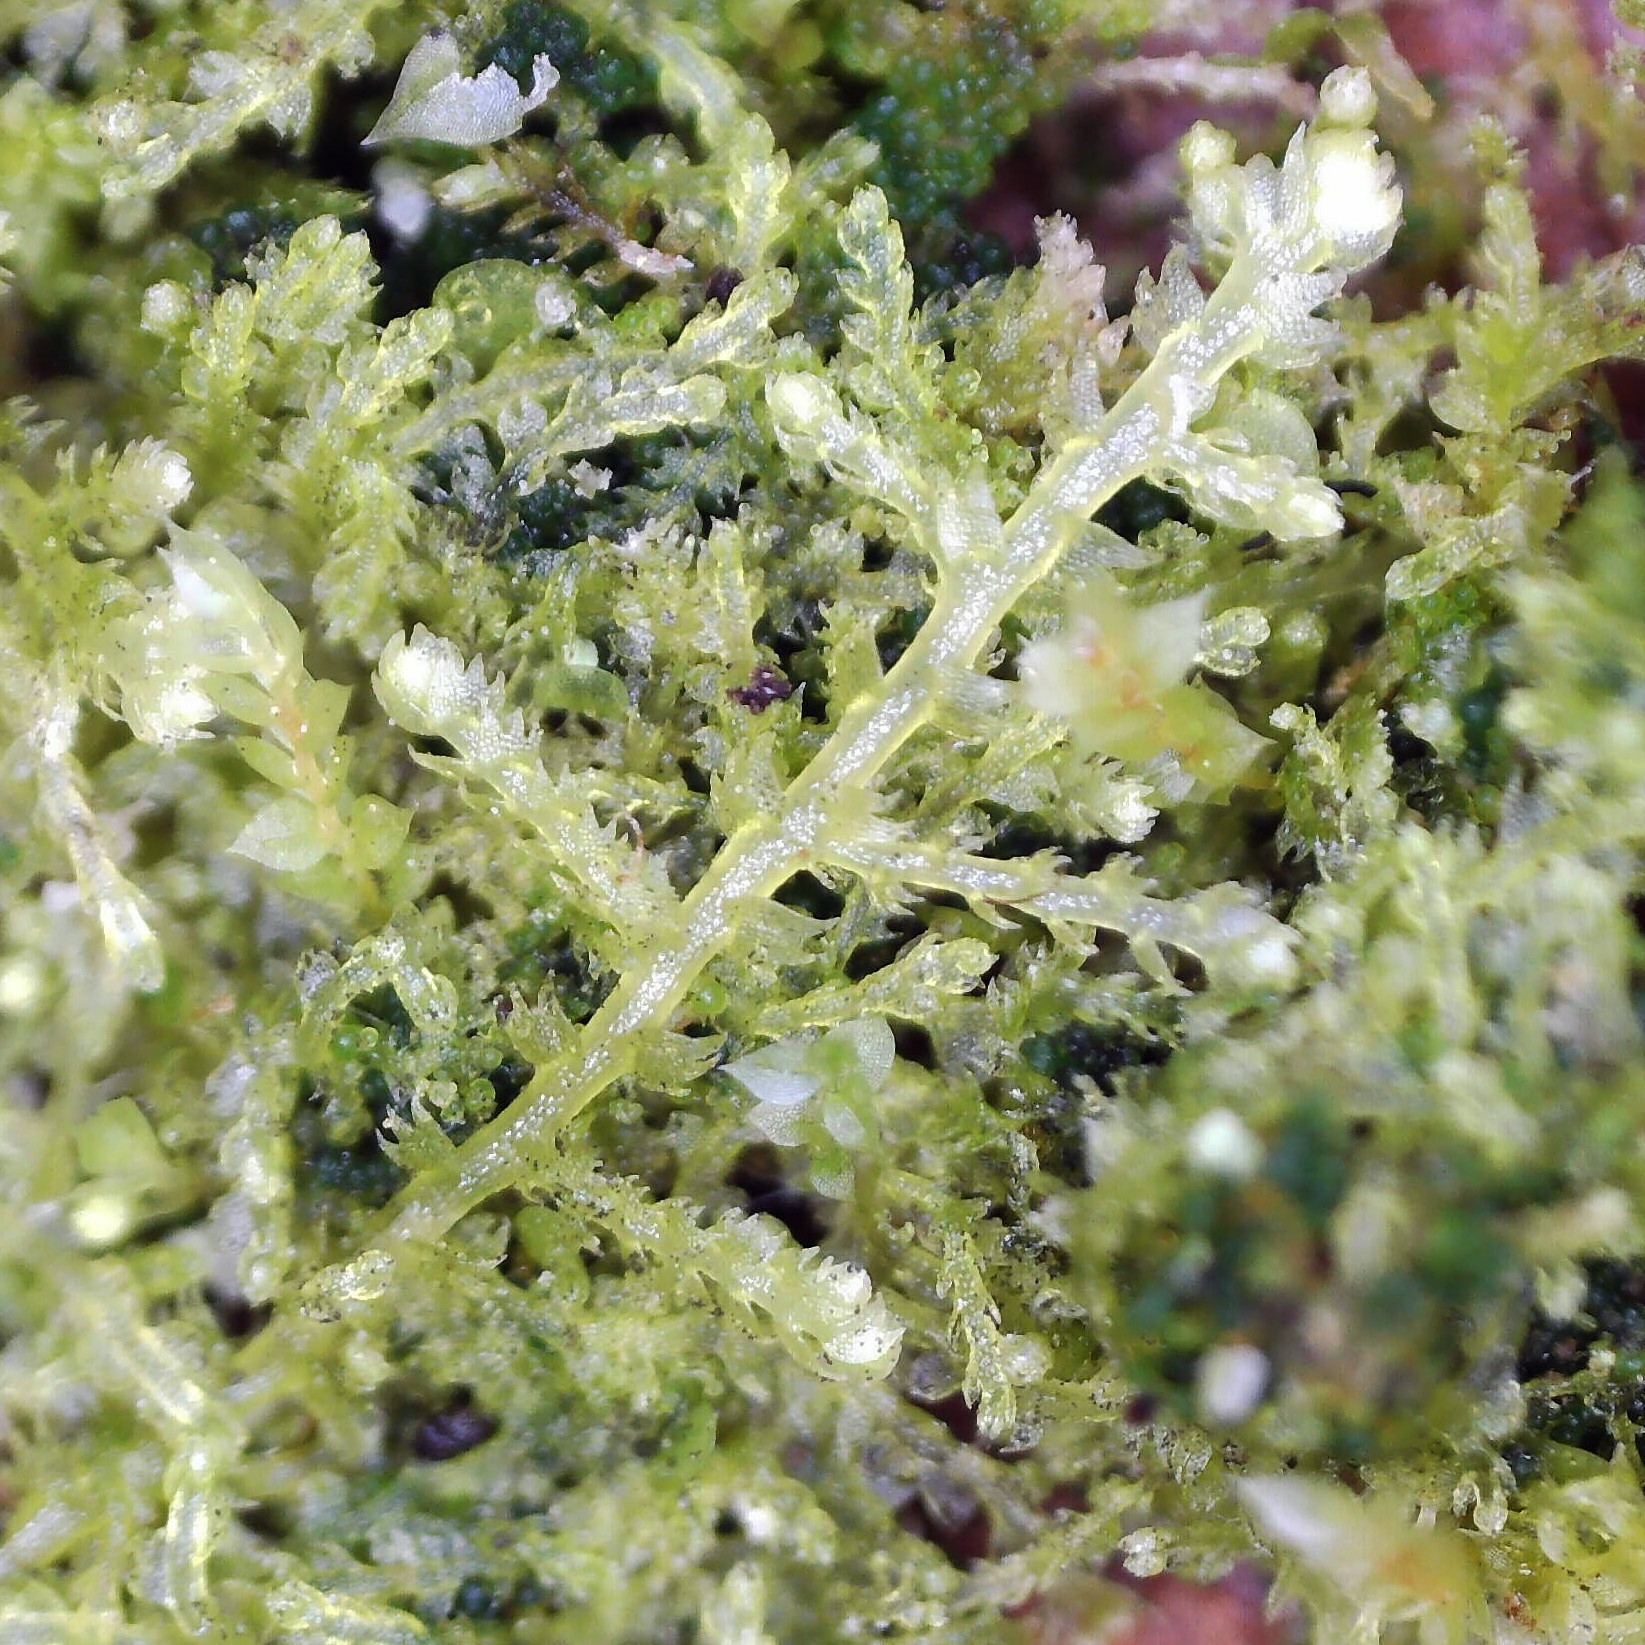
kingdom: Plantae
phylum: Marchantiophyta
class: Jungermanniopsida
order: Jungermanniales
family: Lepidoziaceae
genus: Lepidozia
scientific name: Lepidozia reptans
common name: Creeping fingerwort
